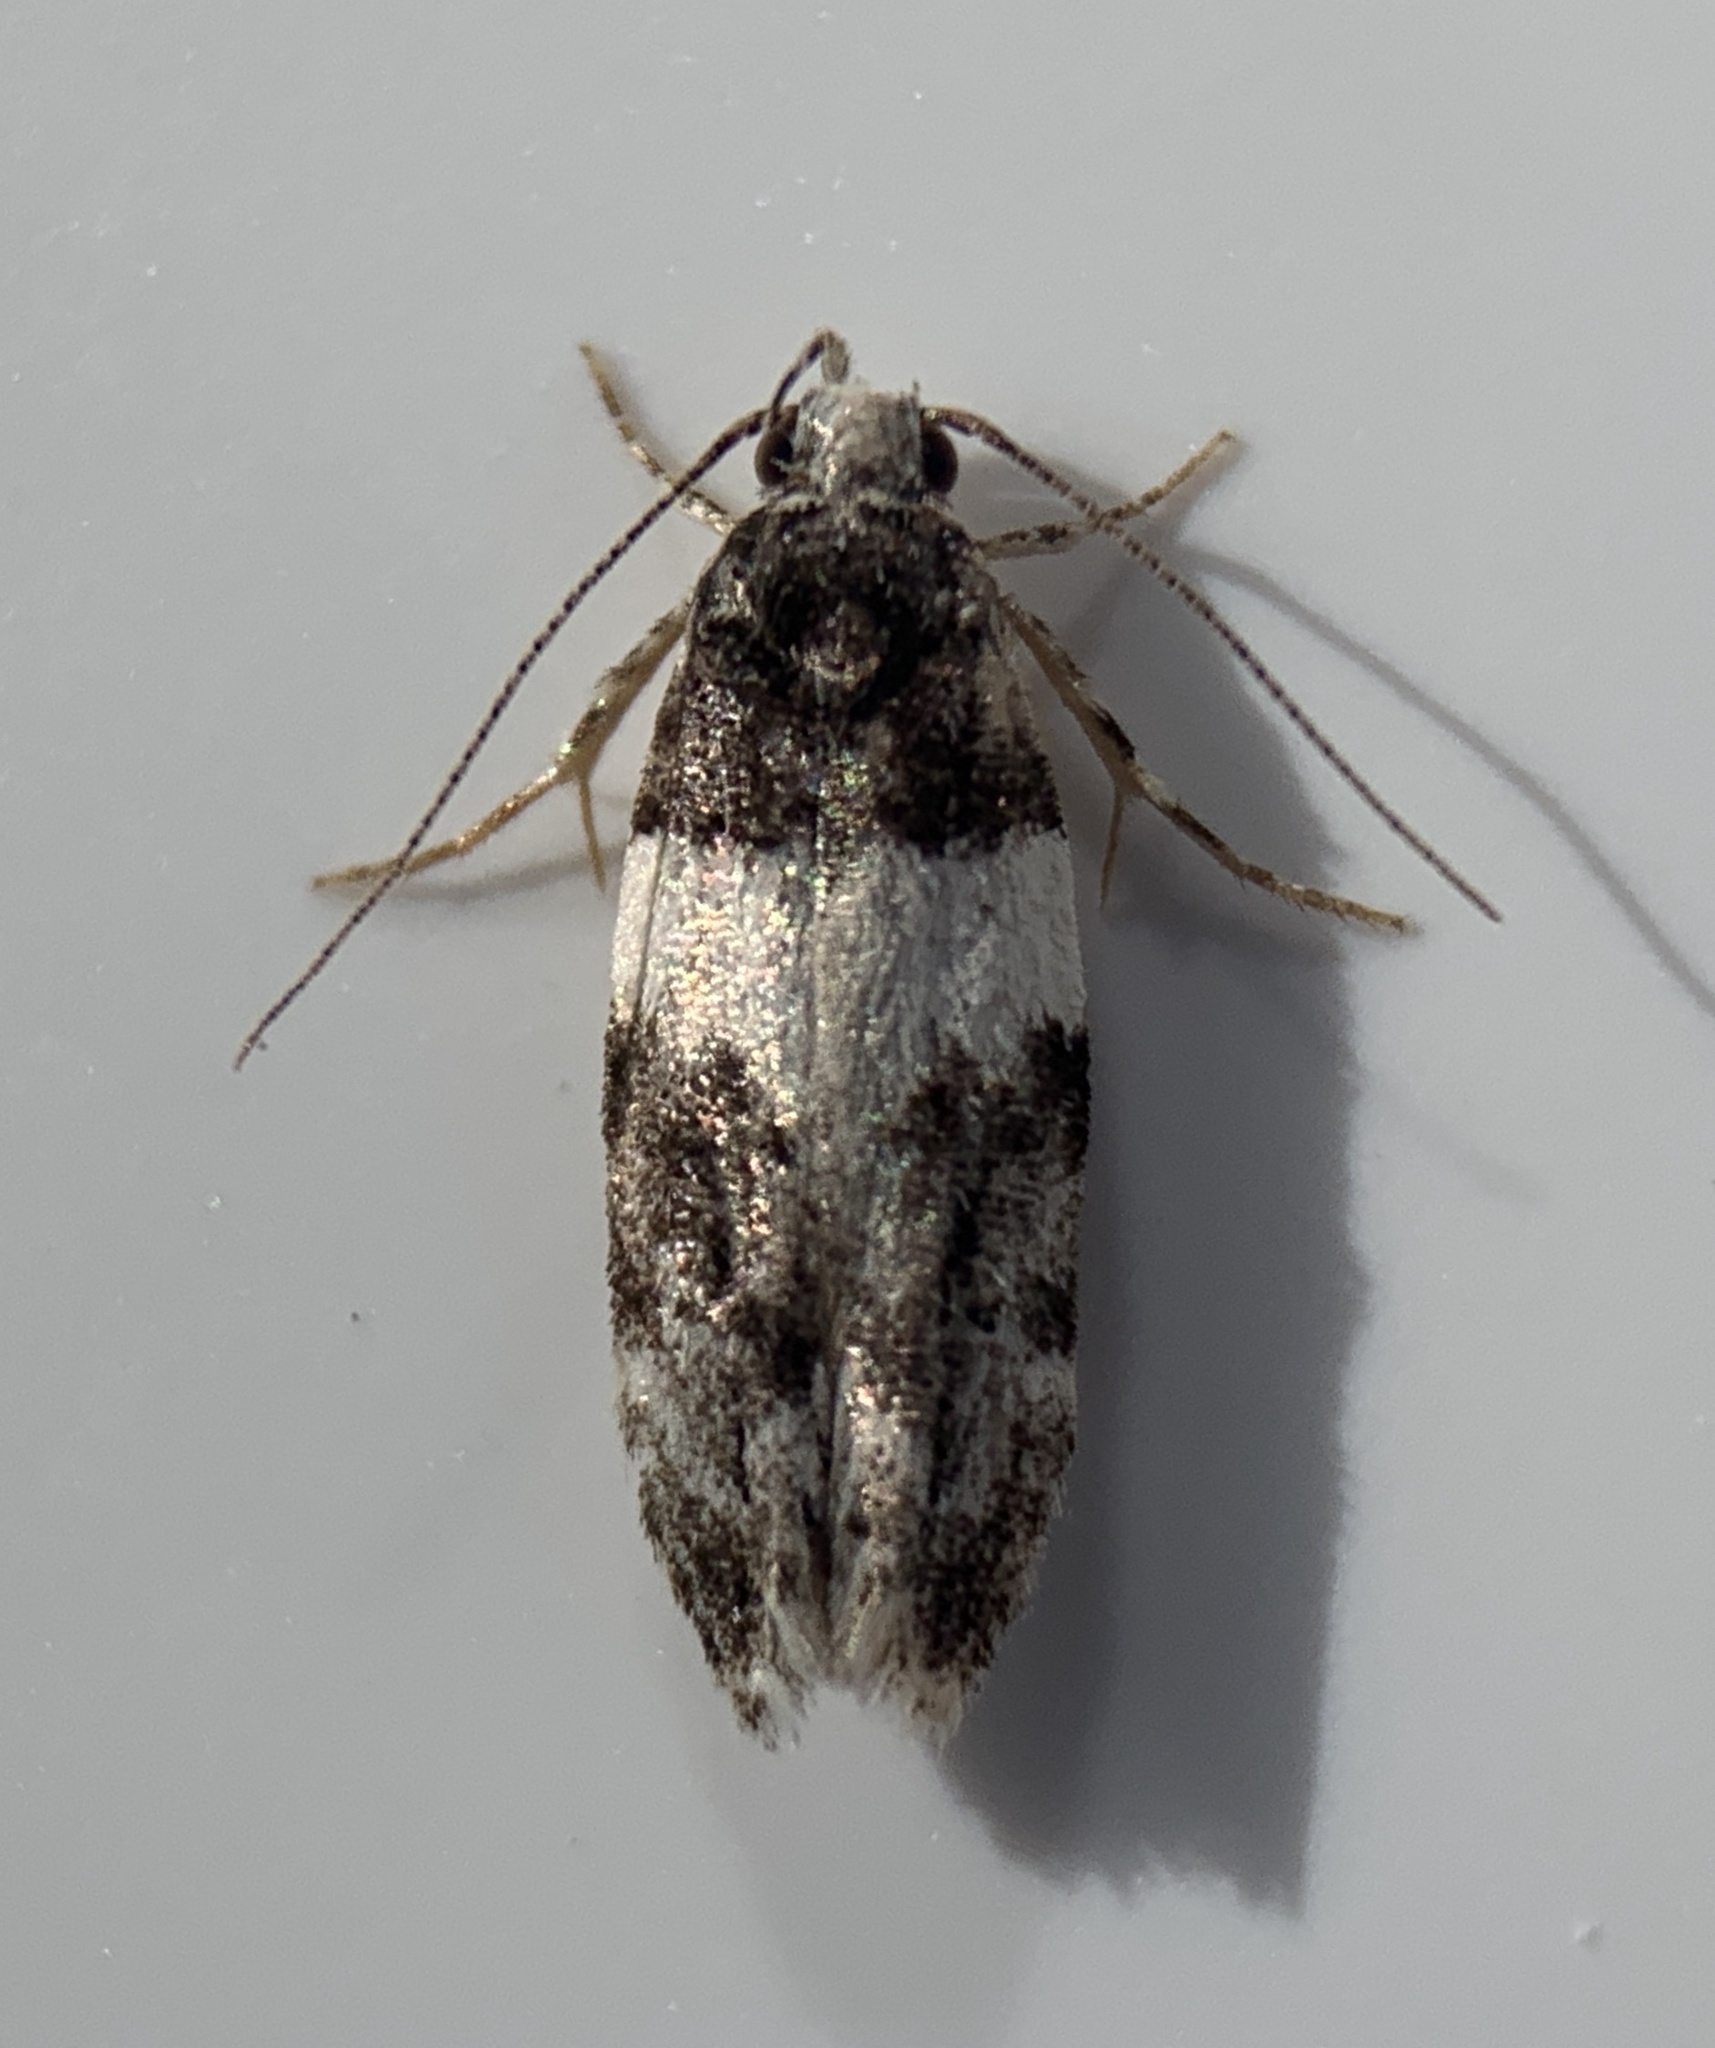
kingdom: Animalia
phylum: Arthropoda
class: Insecta
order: Lepidoptera
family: Gelechiidae
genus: Pubitelphusa
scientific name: Pubitelphusa latifasciella
